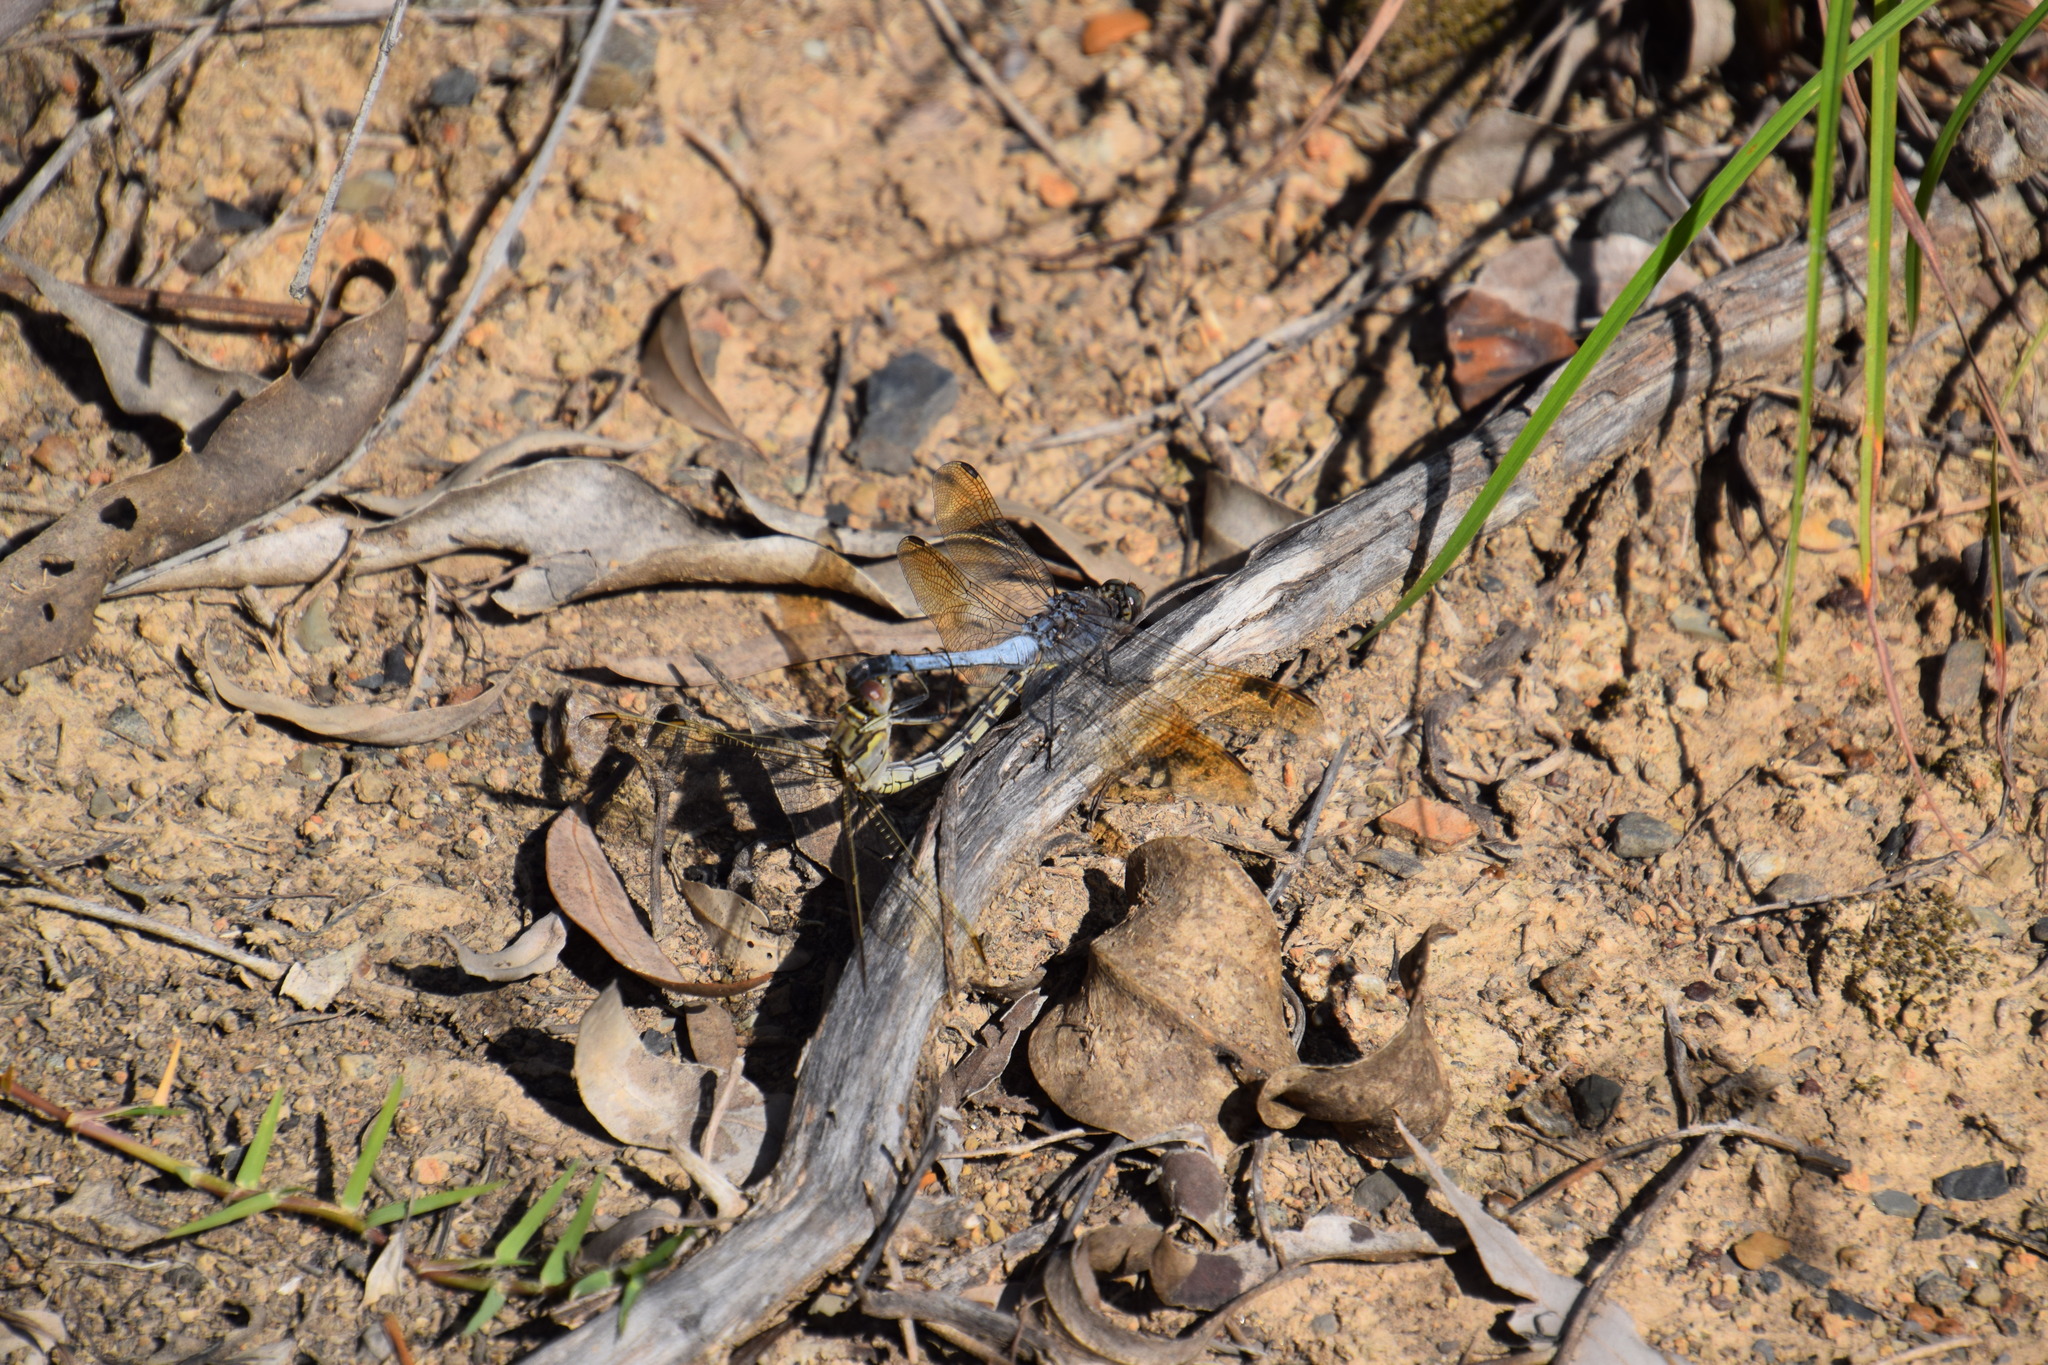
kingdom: Animalia
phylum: Arthropoda
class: Insecta
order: Odonata
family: Libellulidae
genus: Orthetrum
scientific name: Orthetrum caledonicum
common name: Blue skimmer
